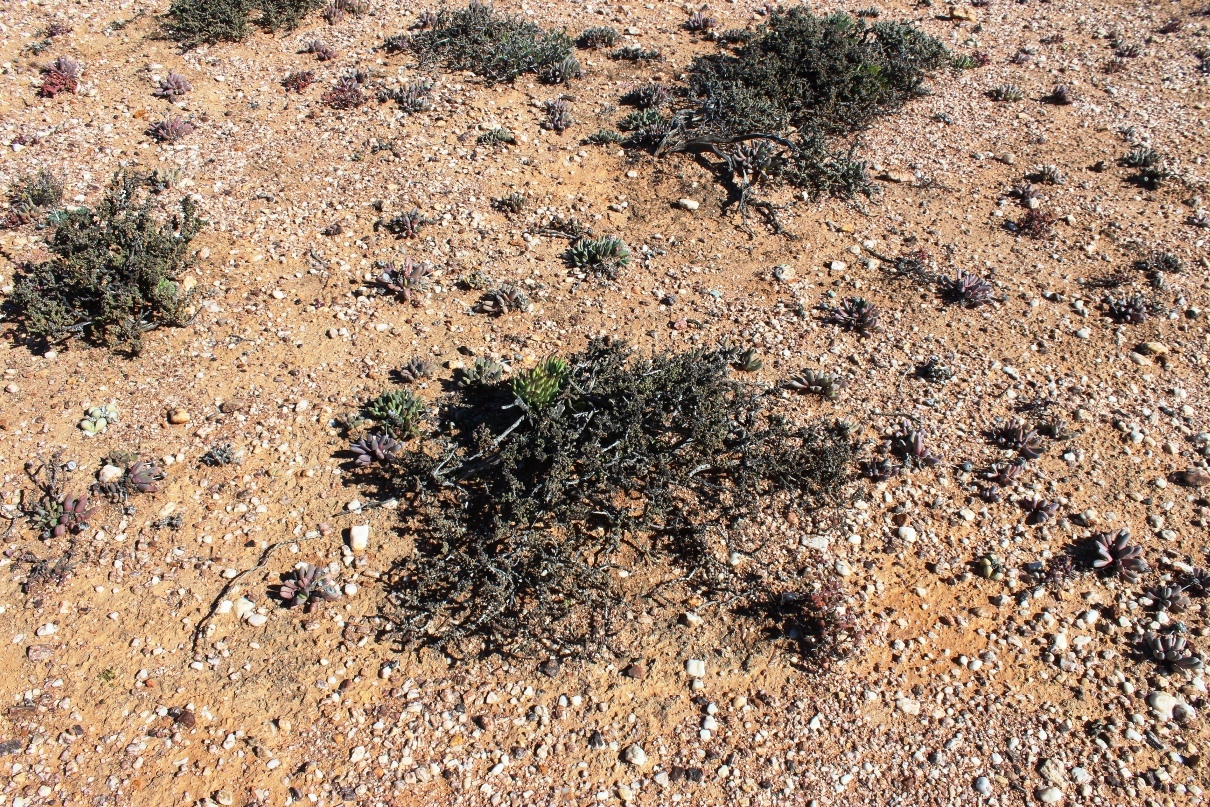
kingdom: Plantae
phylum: Tracheophyta
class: Magnoliopsida
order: Saxifragales
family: Crassulaceae
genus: Tylecodon
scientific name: Tylecodon pearsonii
